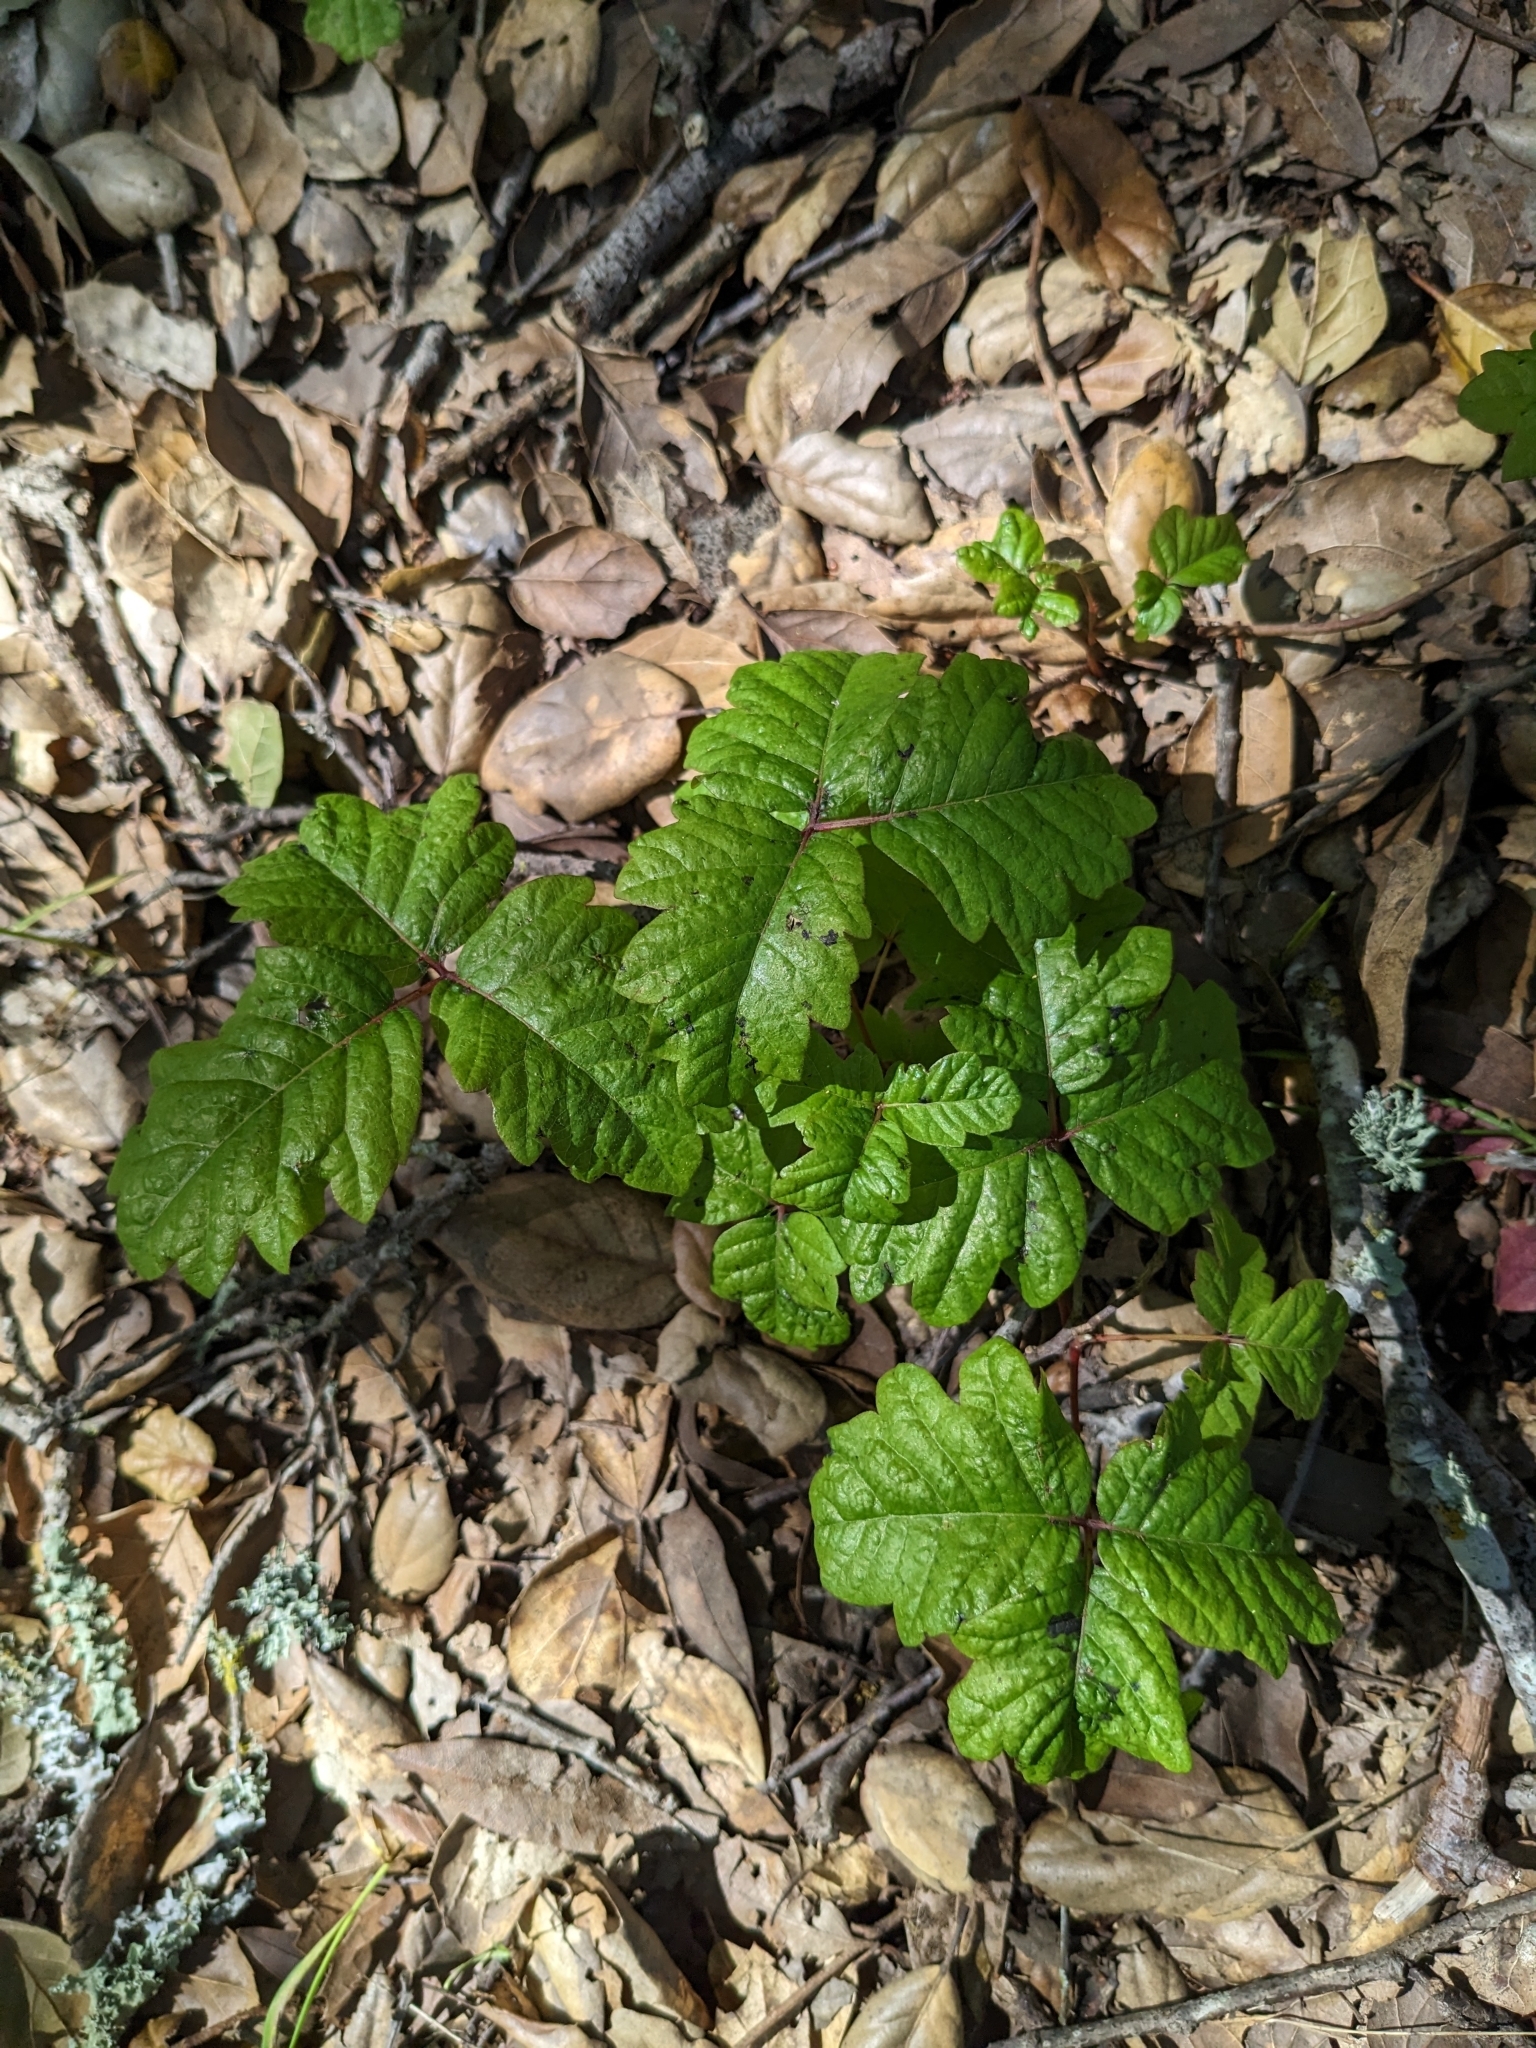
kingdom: Plantae
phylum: Tracheophyta
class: Magnoliopsida
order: Sapindales
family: Anacardiaceae
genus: Toxicodendron
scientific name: Toxicodendron diversilobum
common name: Pacific poison-oak
